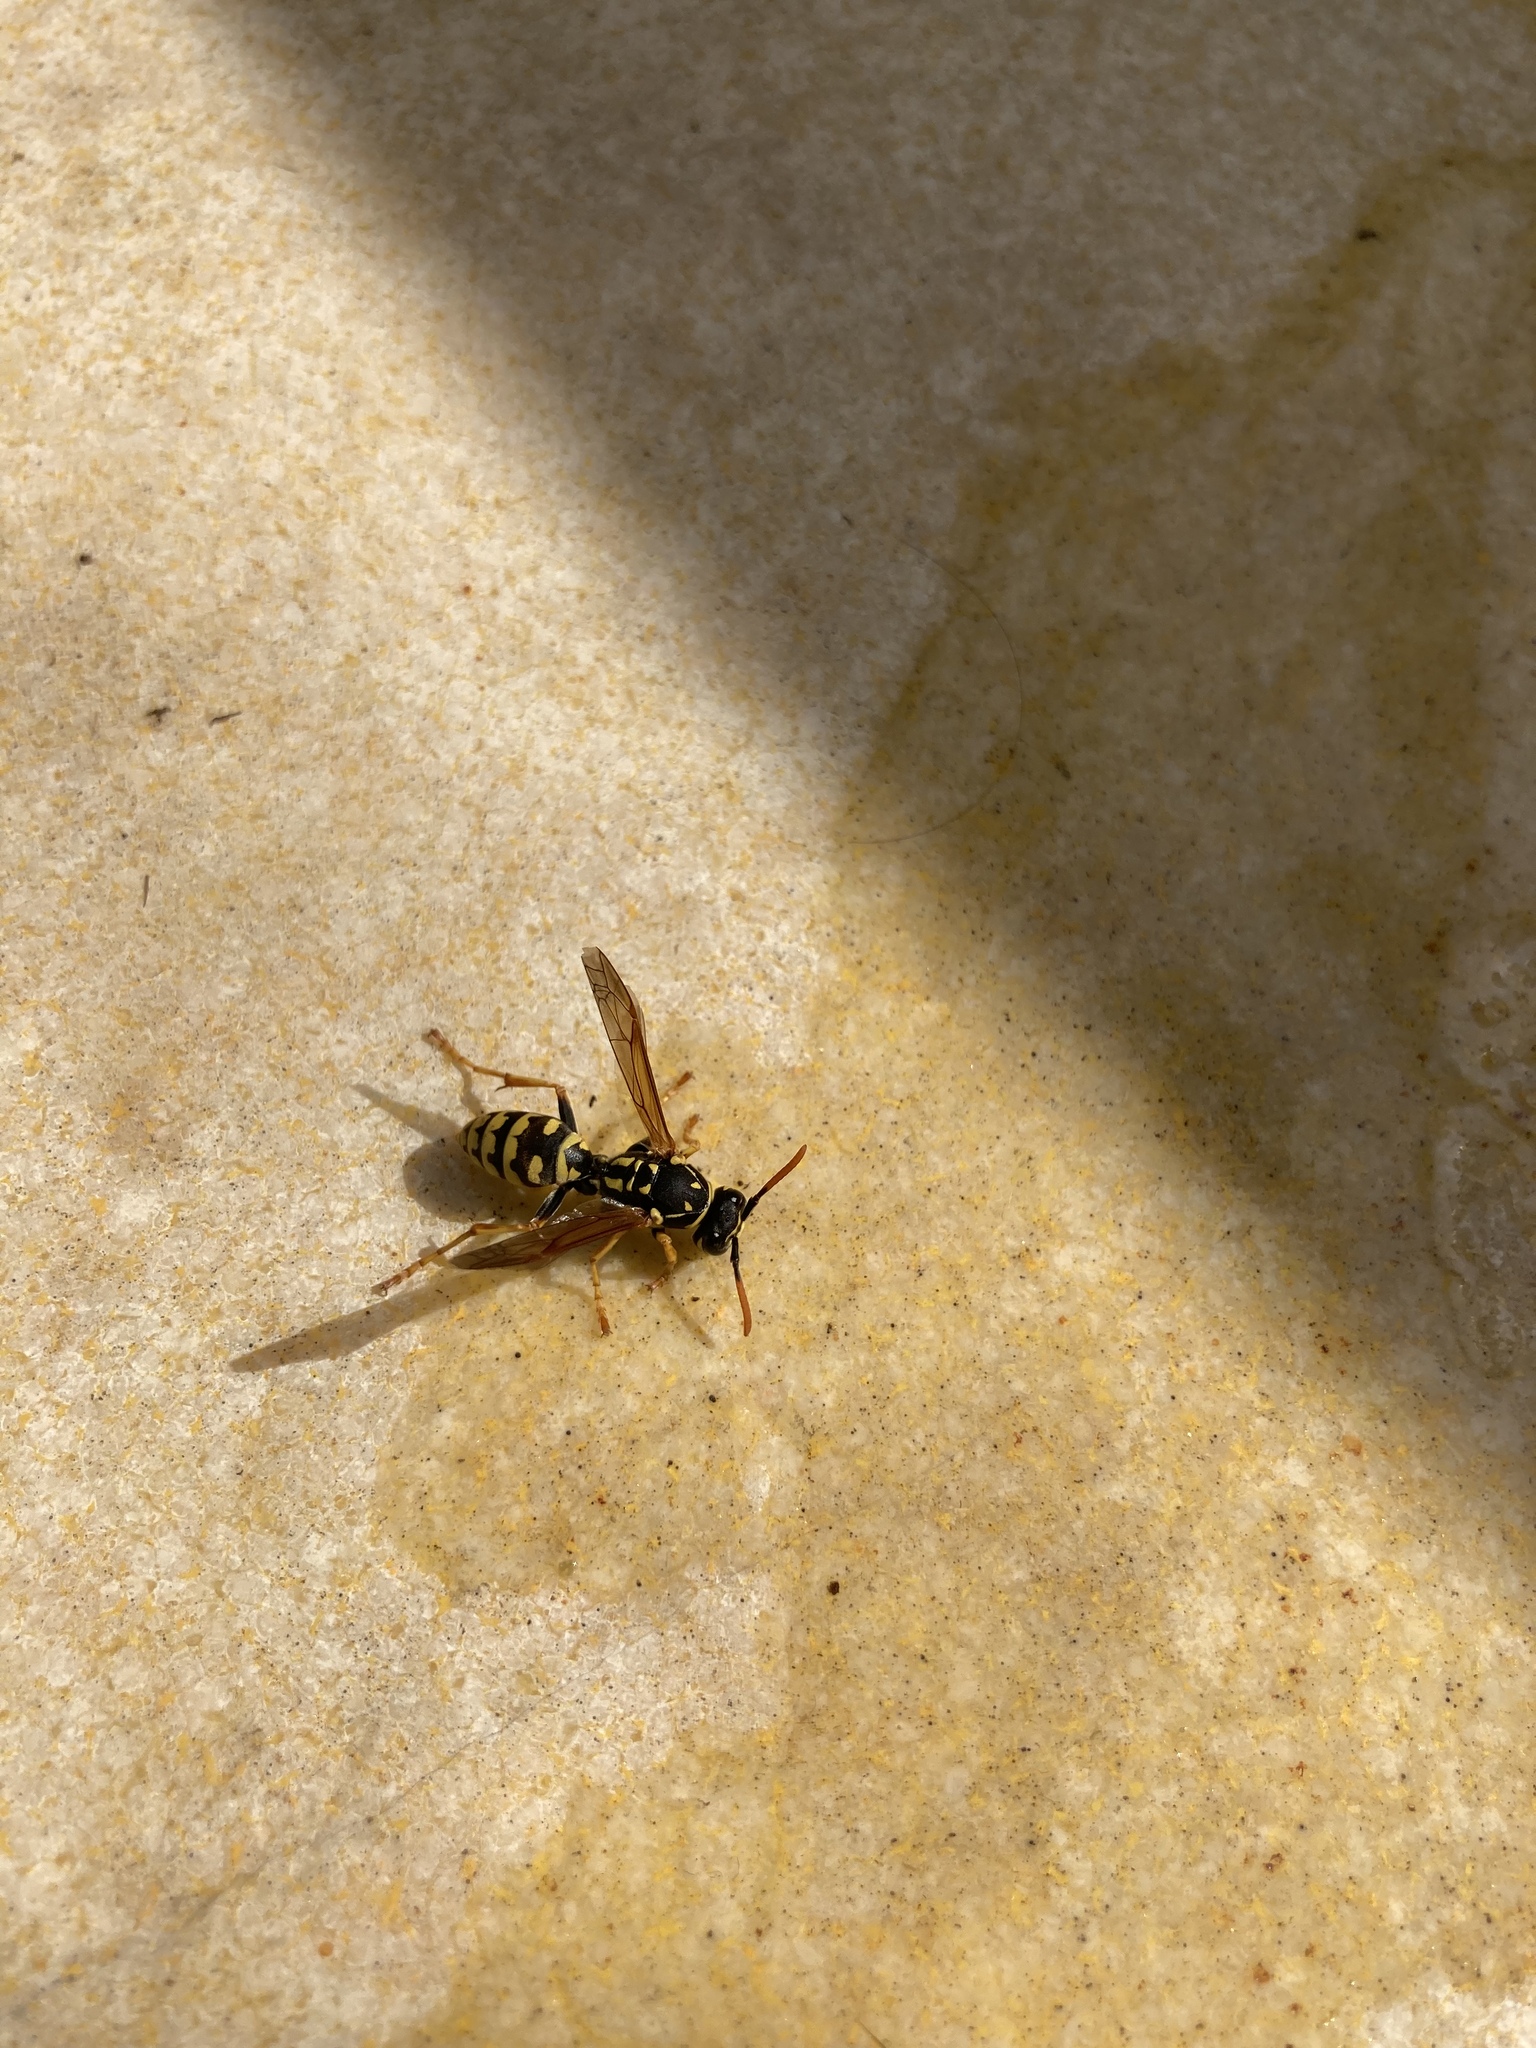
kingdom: Animalia
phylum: Arthropoda
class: Insecta
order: Hymenoptera
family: Eumenidae
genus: Polistes
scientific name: Polistes dominula
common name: Paper wasp
